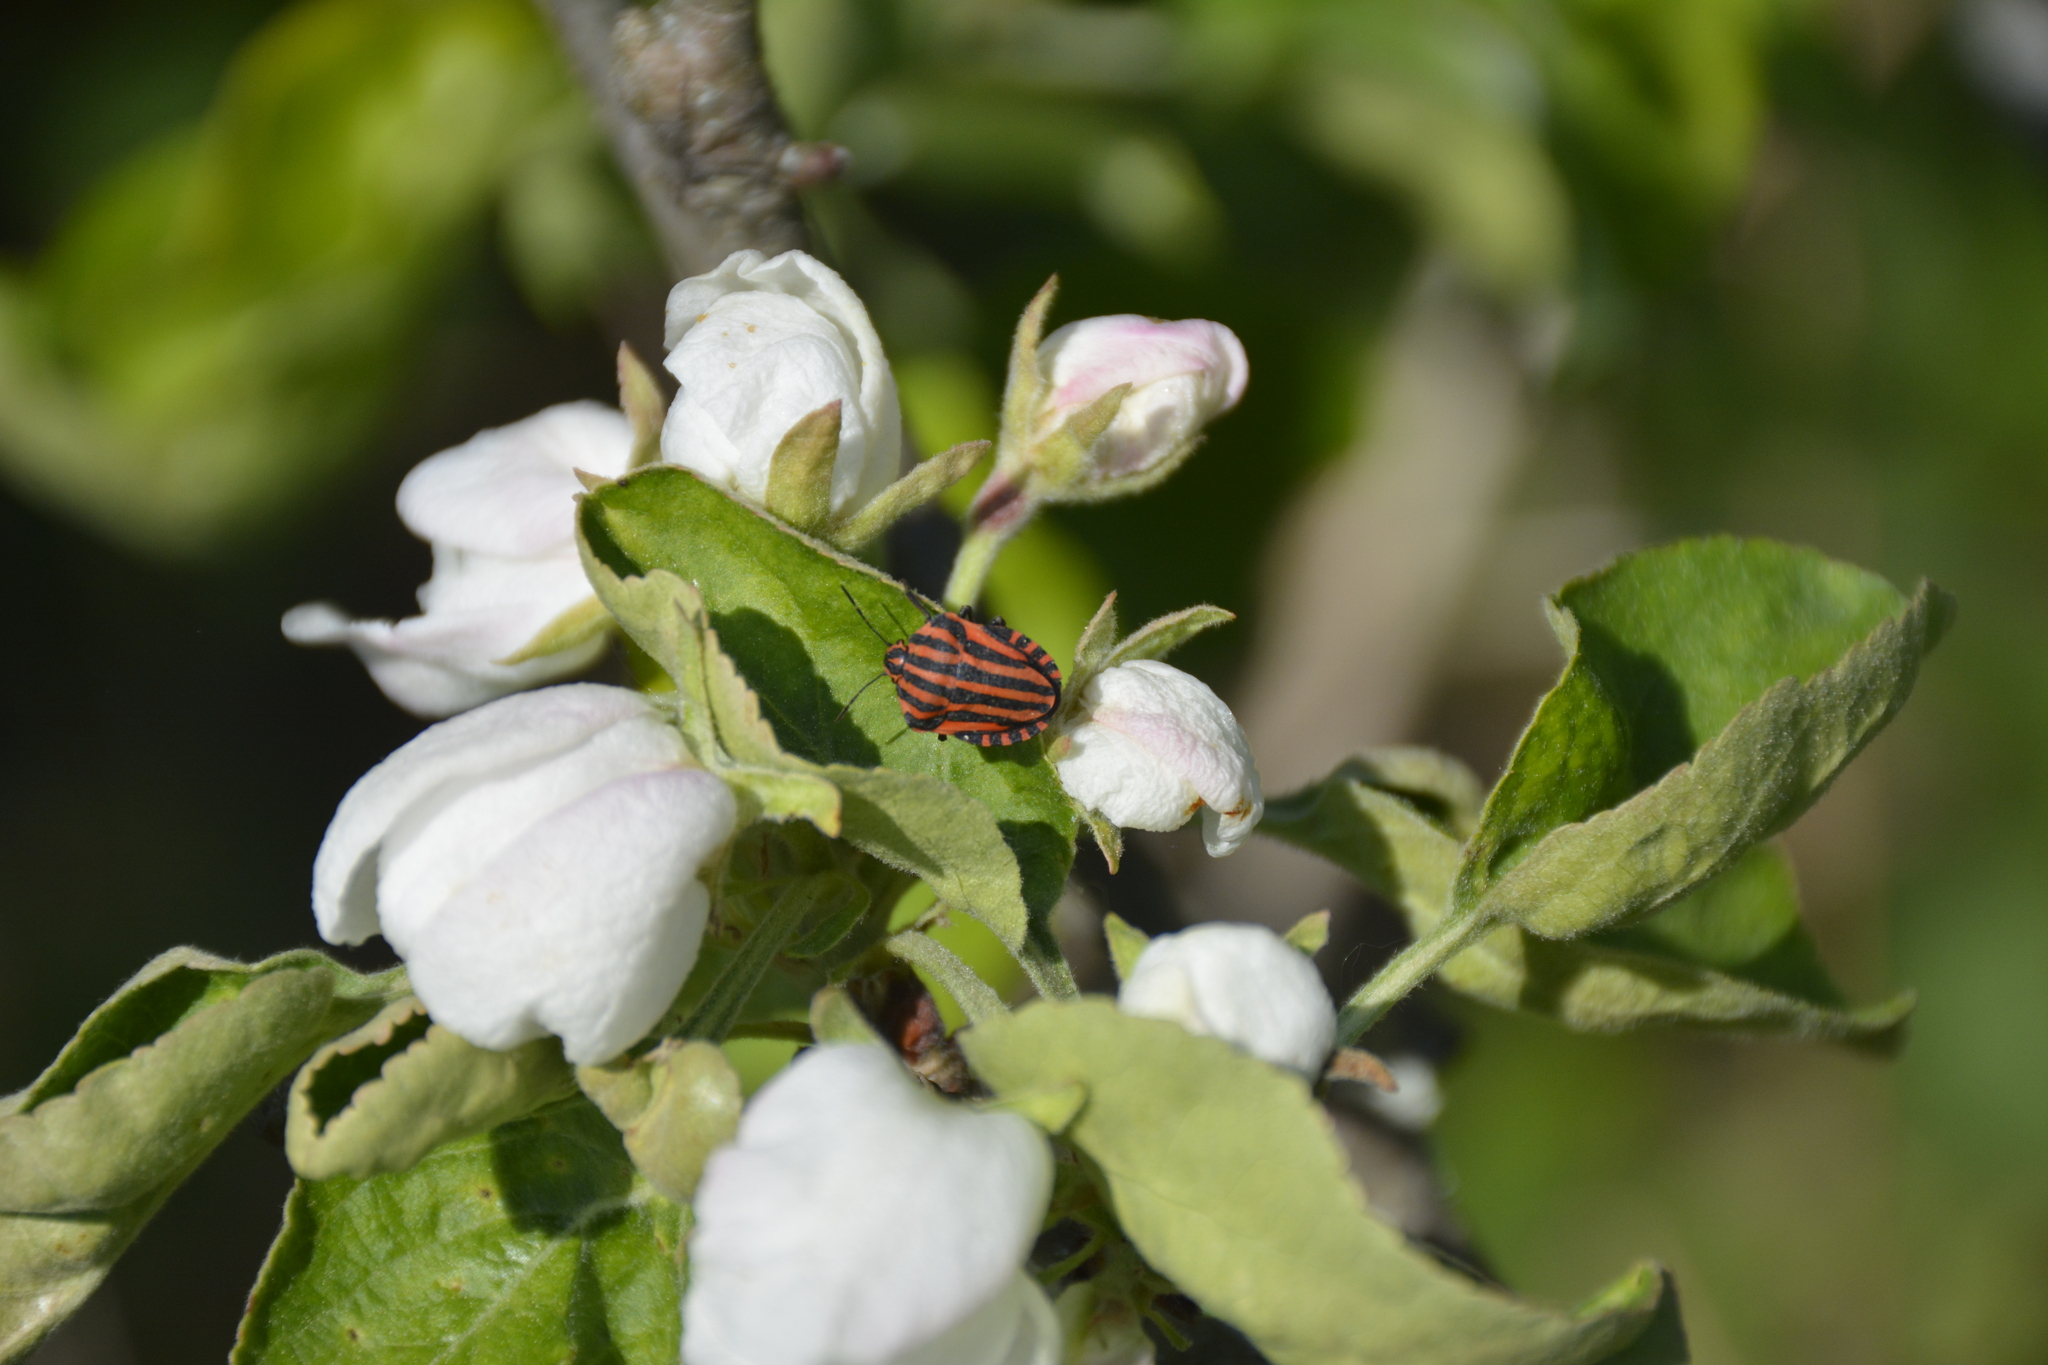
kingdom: Animalia
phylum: Arthropoda
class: Insecta
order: Hemiptera
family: Pentatomidae
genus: Graphosoma
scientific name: Graphosoma italicum
